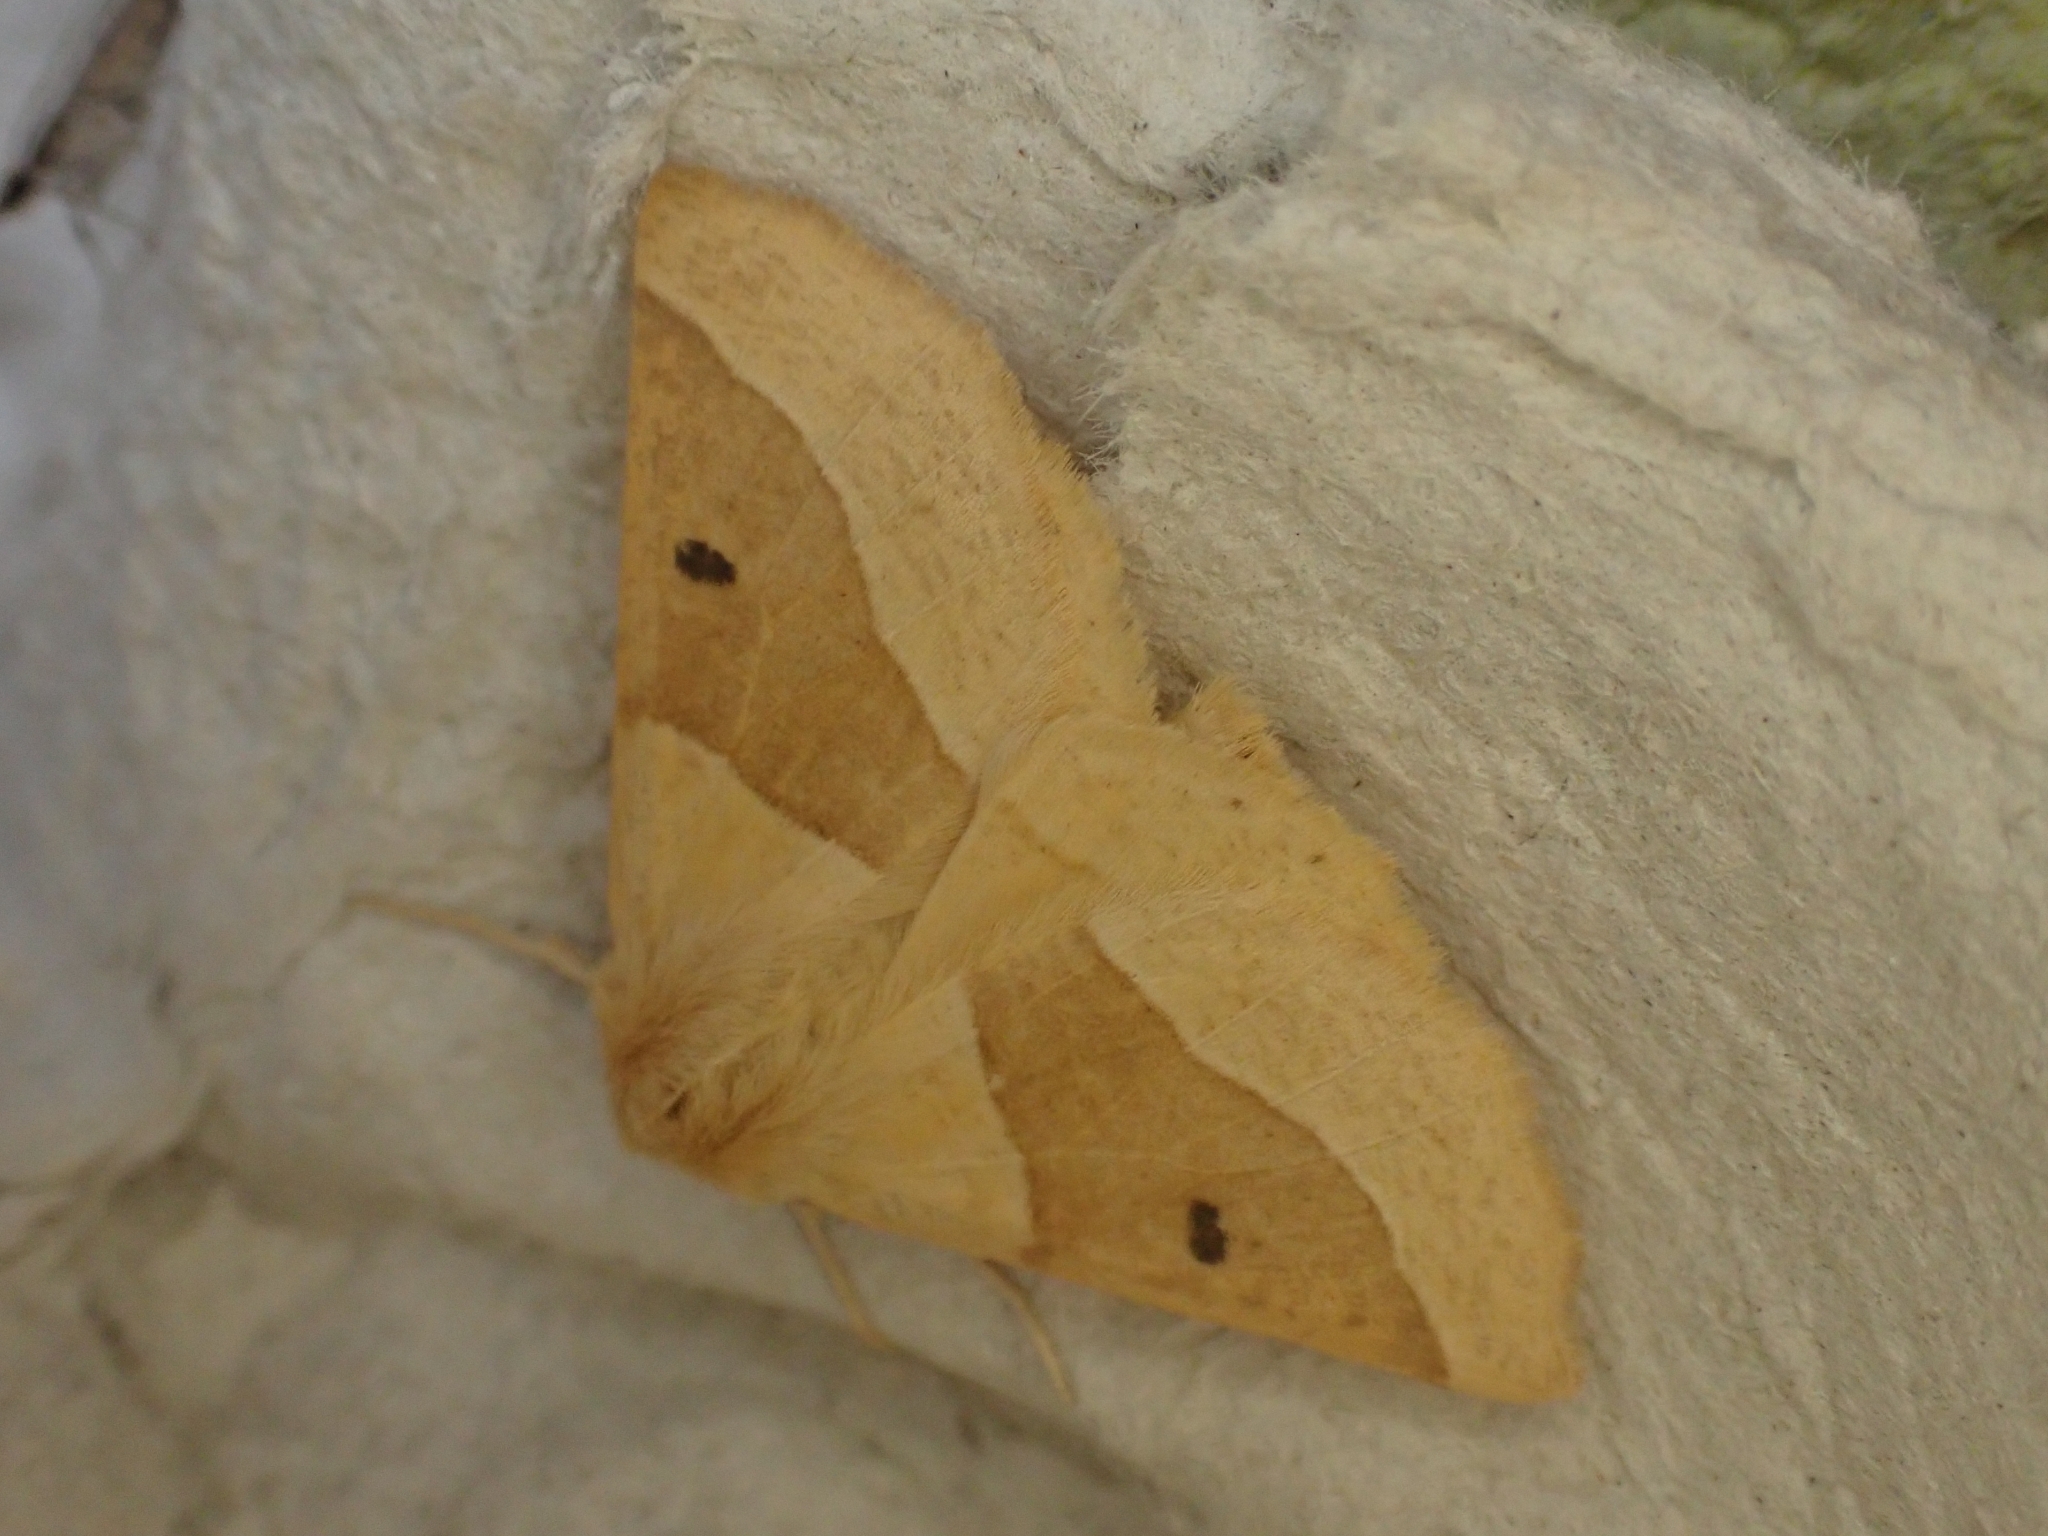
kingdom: Animalia
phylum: Arthropoda
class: Insecta
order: Lepidoptera
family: Geometridae
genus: Crocallis
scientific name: Crocallis elinguaria
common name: Scalloped oak
